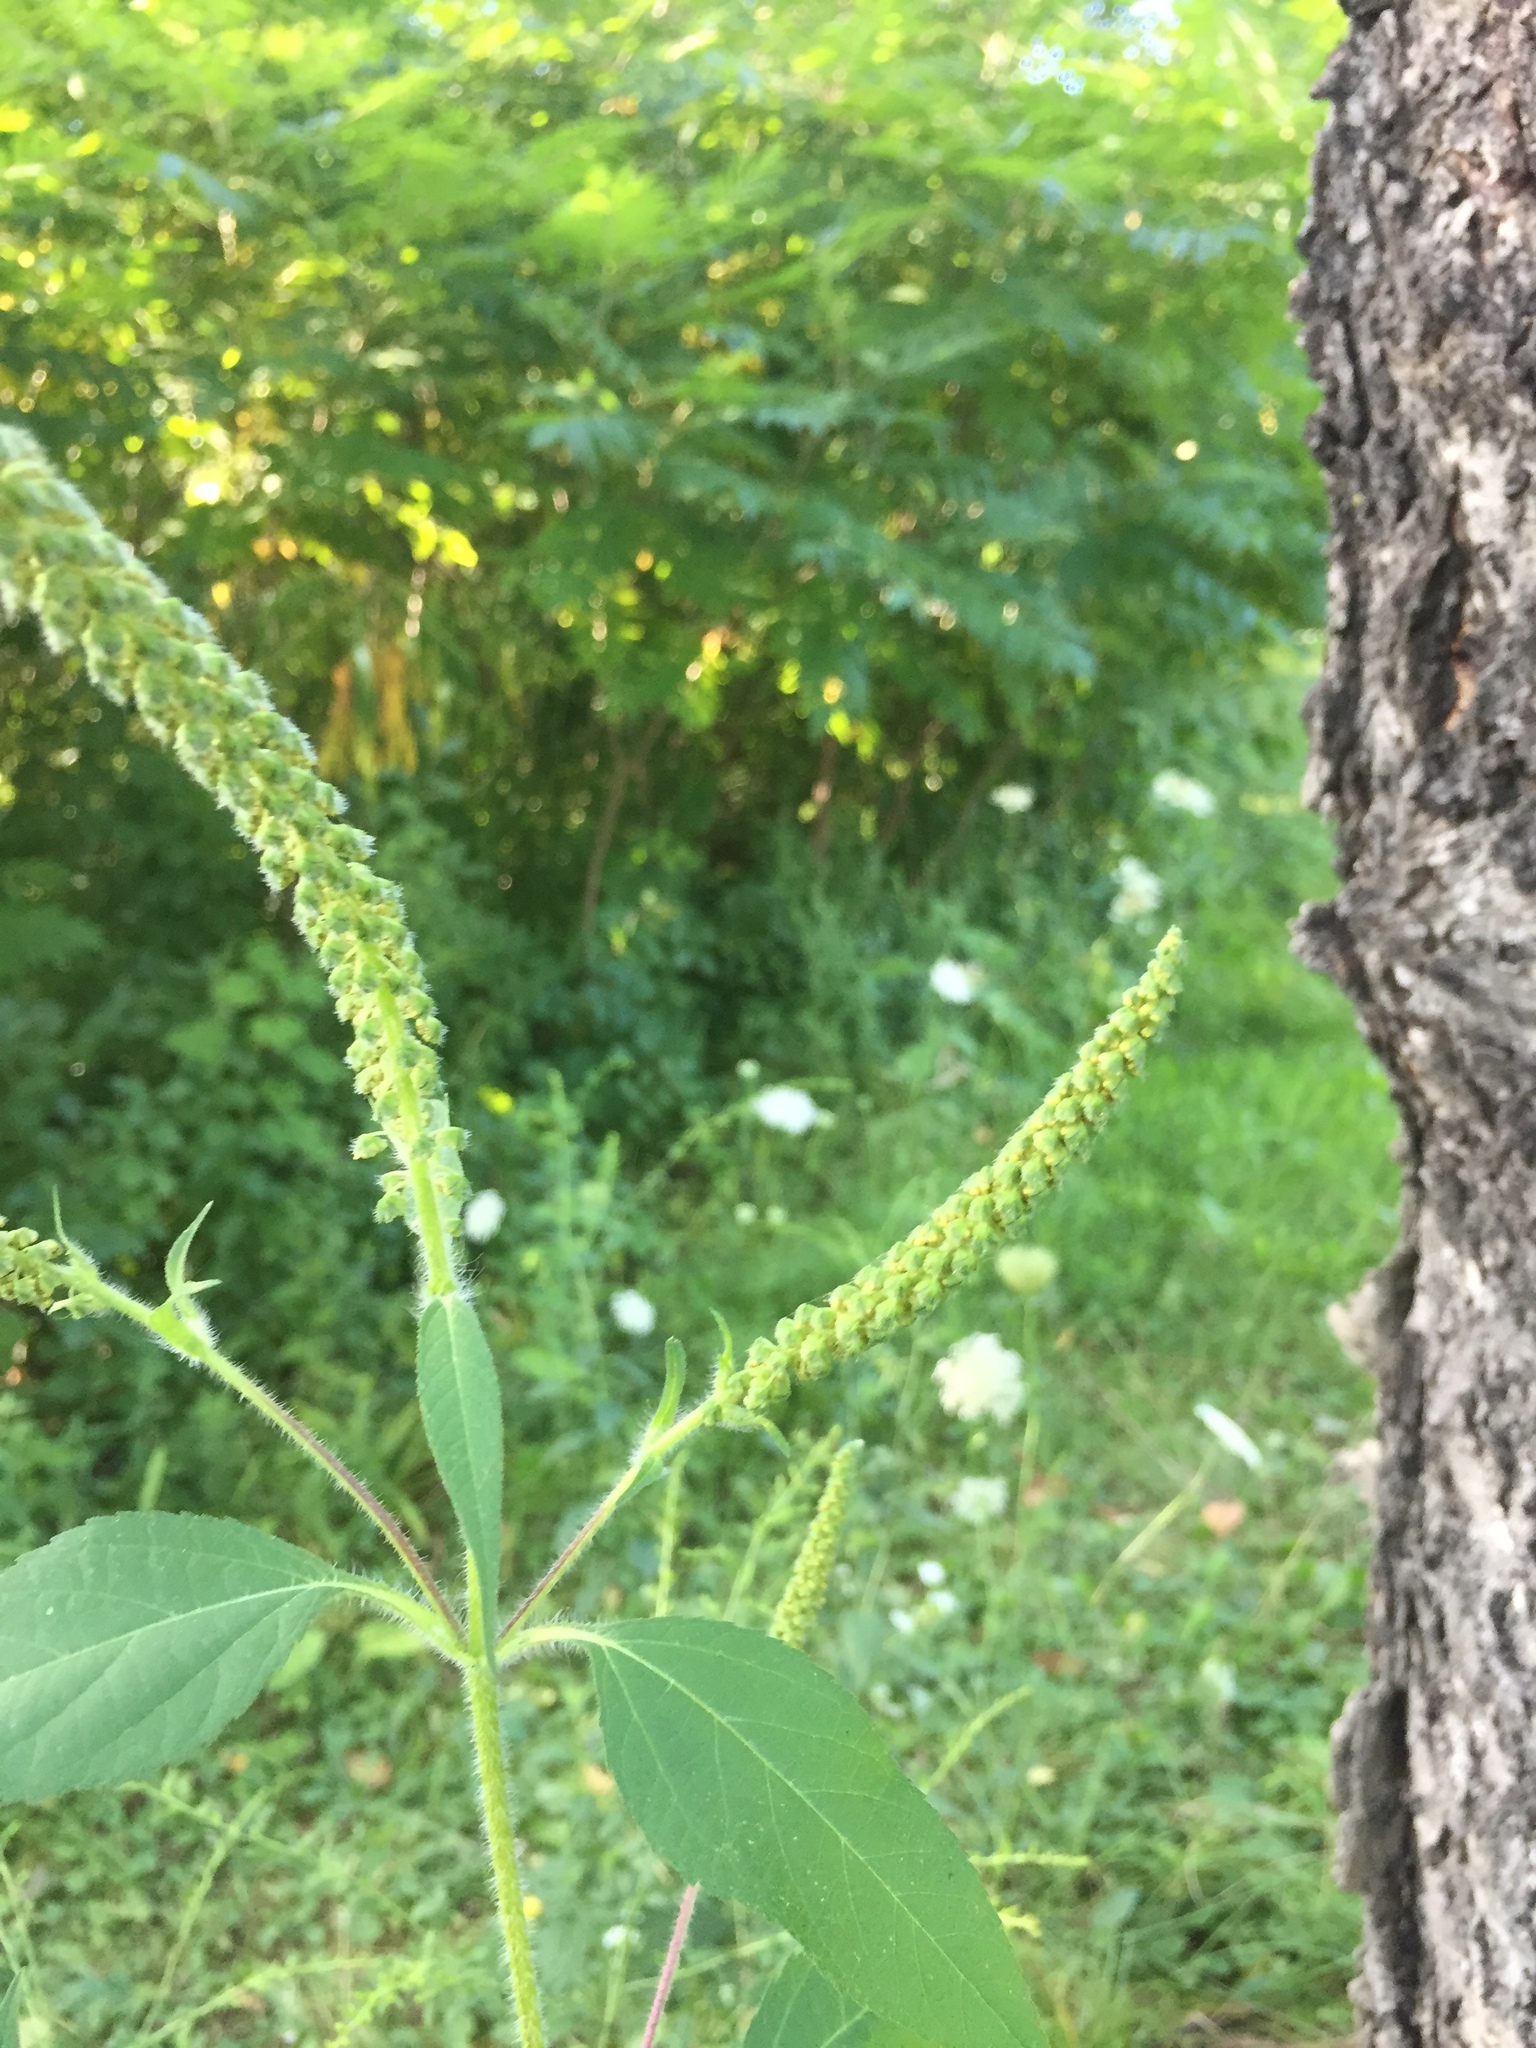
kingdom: Plantae
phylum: Tracheophyta
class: Magnoliopsida
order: Asterales
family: Asteraceae
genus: Ambrosia
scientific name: Ambrosia trifida
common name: Giant ragweed
